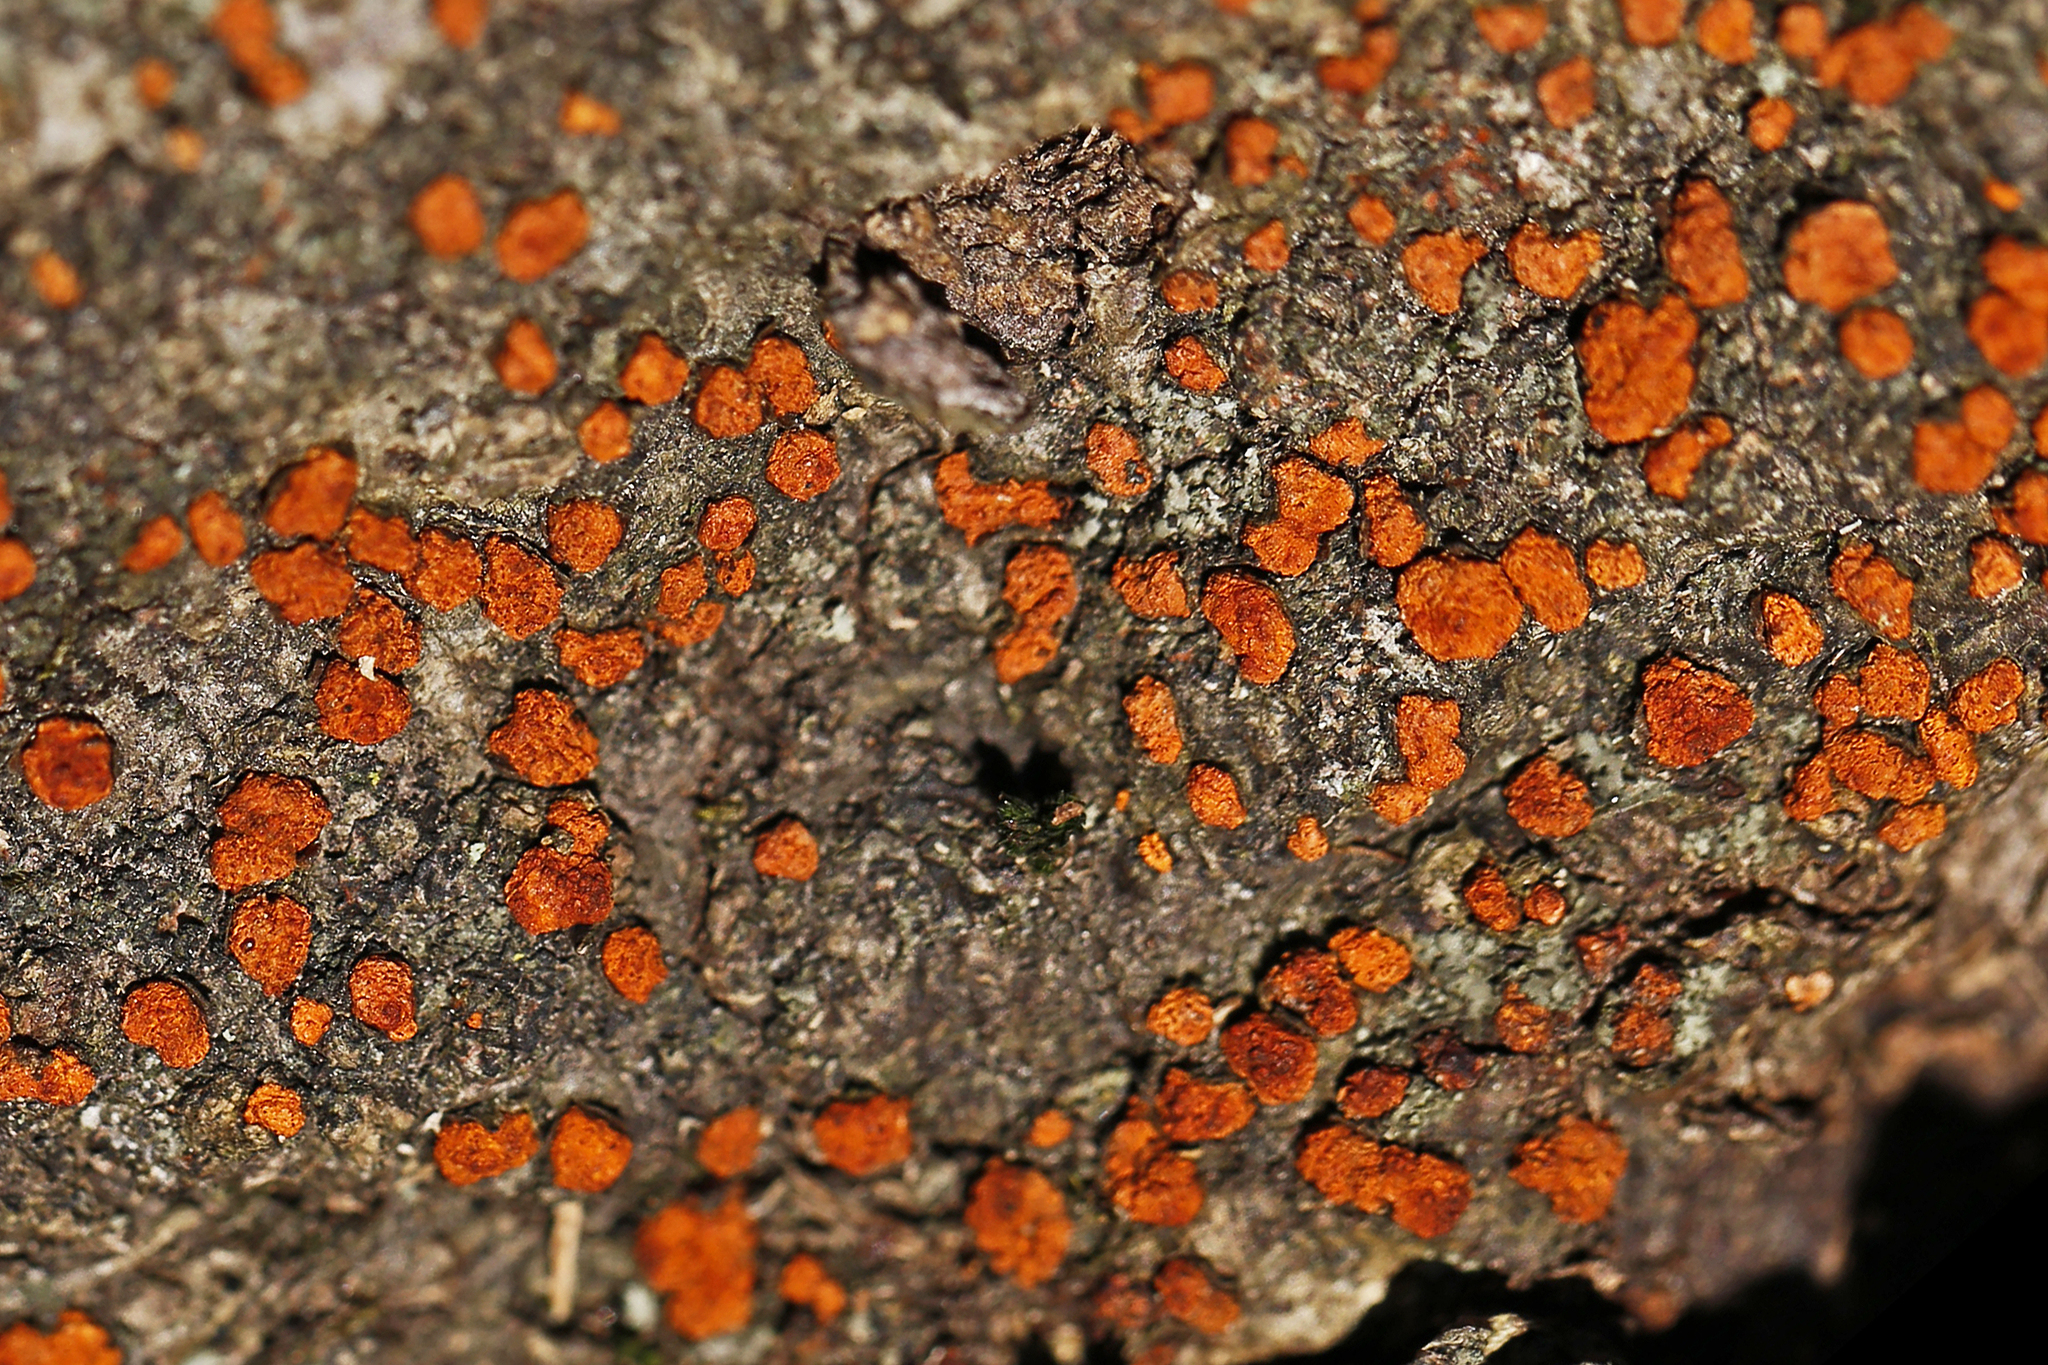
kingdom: Fungi
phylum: Ascomycota
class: Sordariomycetes
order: Diaporthales
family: Cryphonectriaceae
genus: Amphilogia
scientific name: Amphilogia gyrosa
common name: Orange hobnail canker
